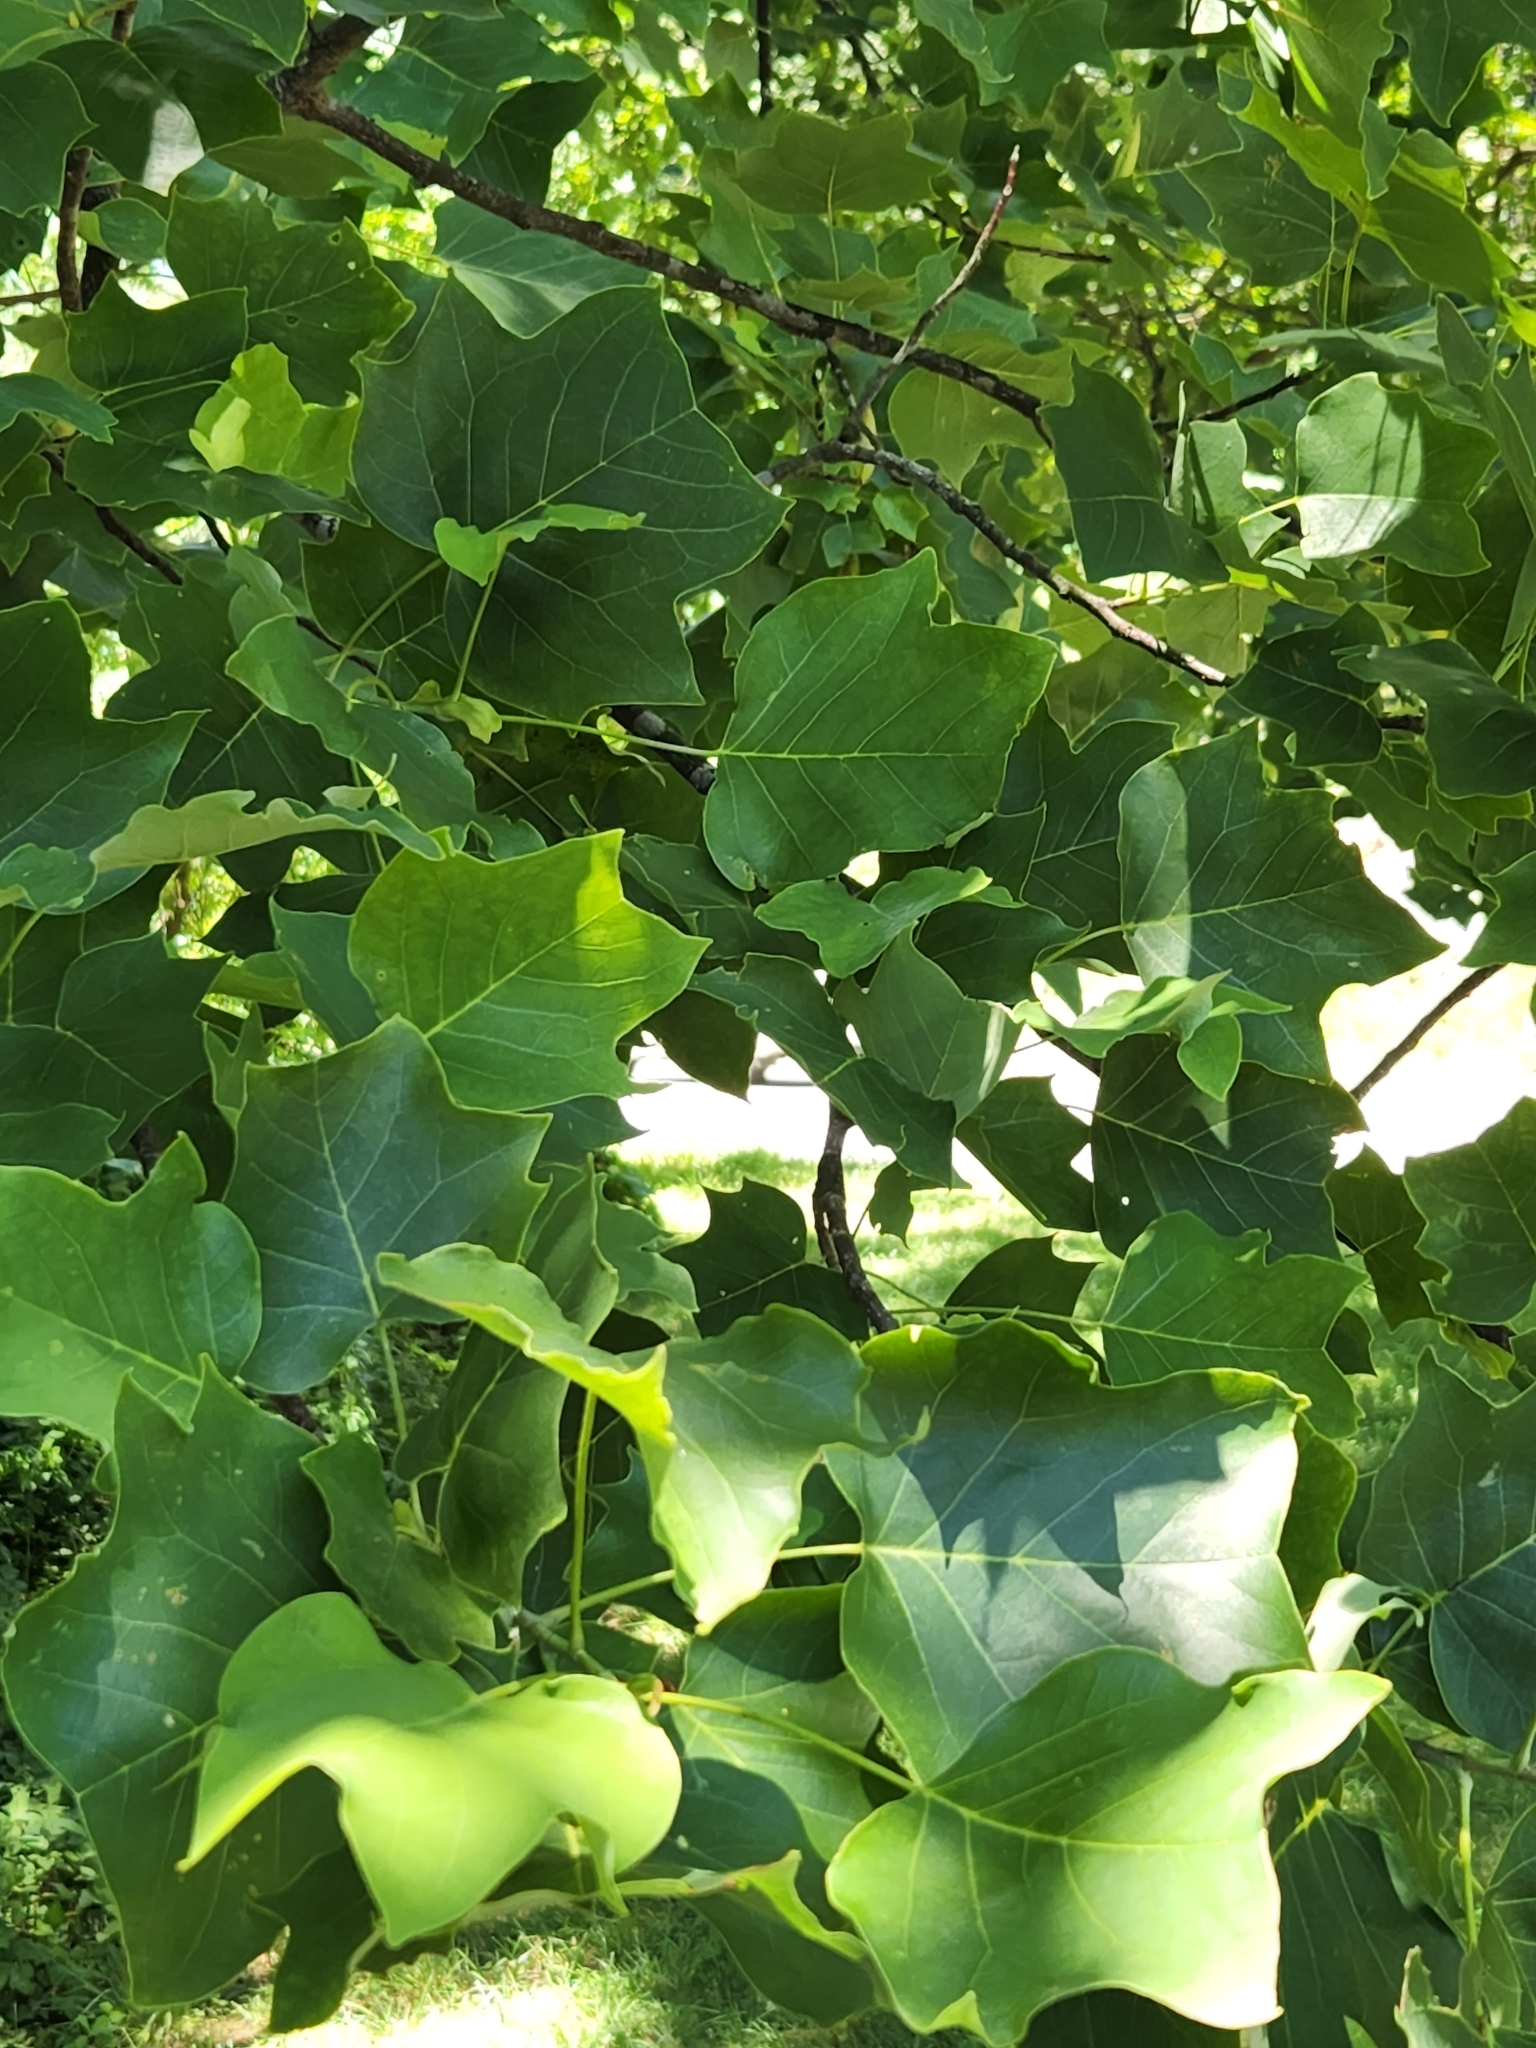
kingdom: Plantae
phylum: Tracheophyta
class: Magnoliopsida
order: Magnoliales
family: Magnoliaceae
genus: Liriodendron
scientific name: Liriodendron tulipifera
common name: Tulip tree
